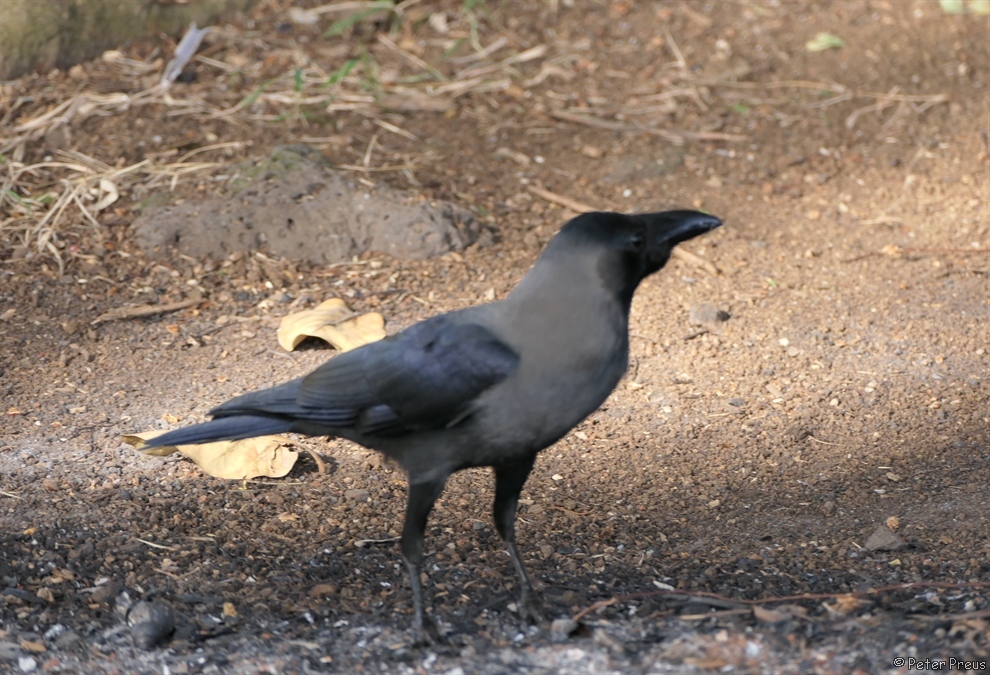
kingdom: Animalia
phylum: Chordata
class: Aves
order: Passeriformes
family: Corvidae
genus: Corvus
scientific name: Corvus splendens
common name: House crow
